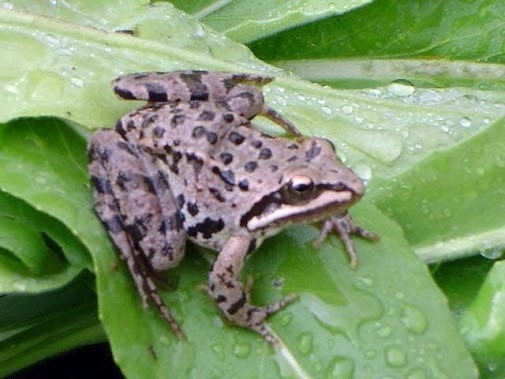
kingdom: Animalia
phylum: Chordata
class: Amphibia
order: Anura
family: Ranidae
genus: Rana
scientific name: Rana macrocnemis
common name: Banded frog
